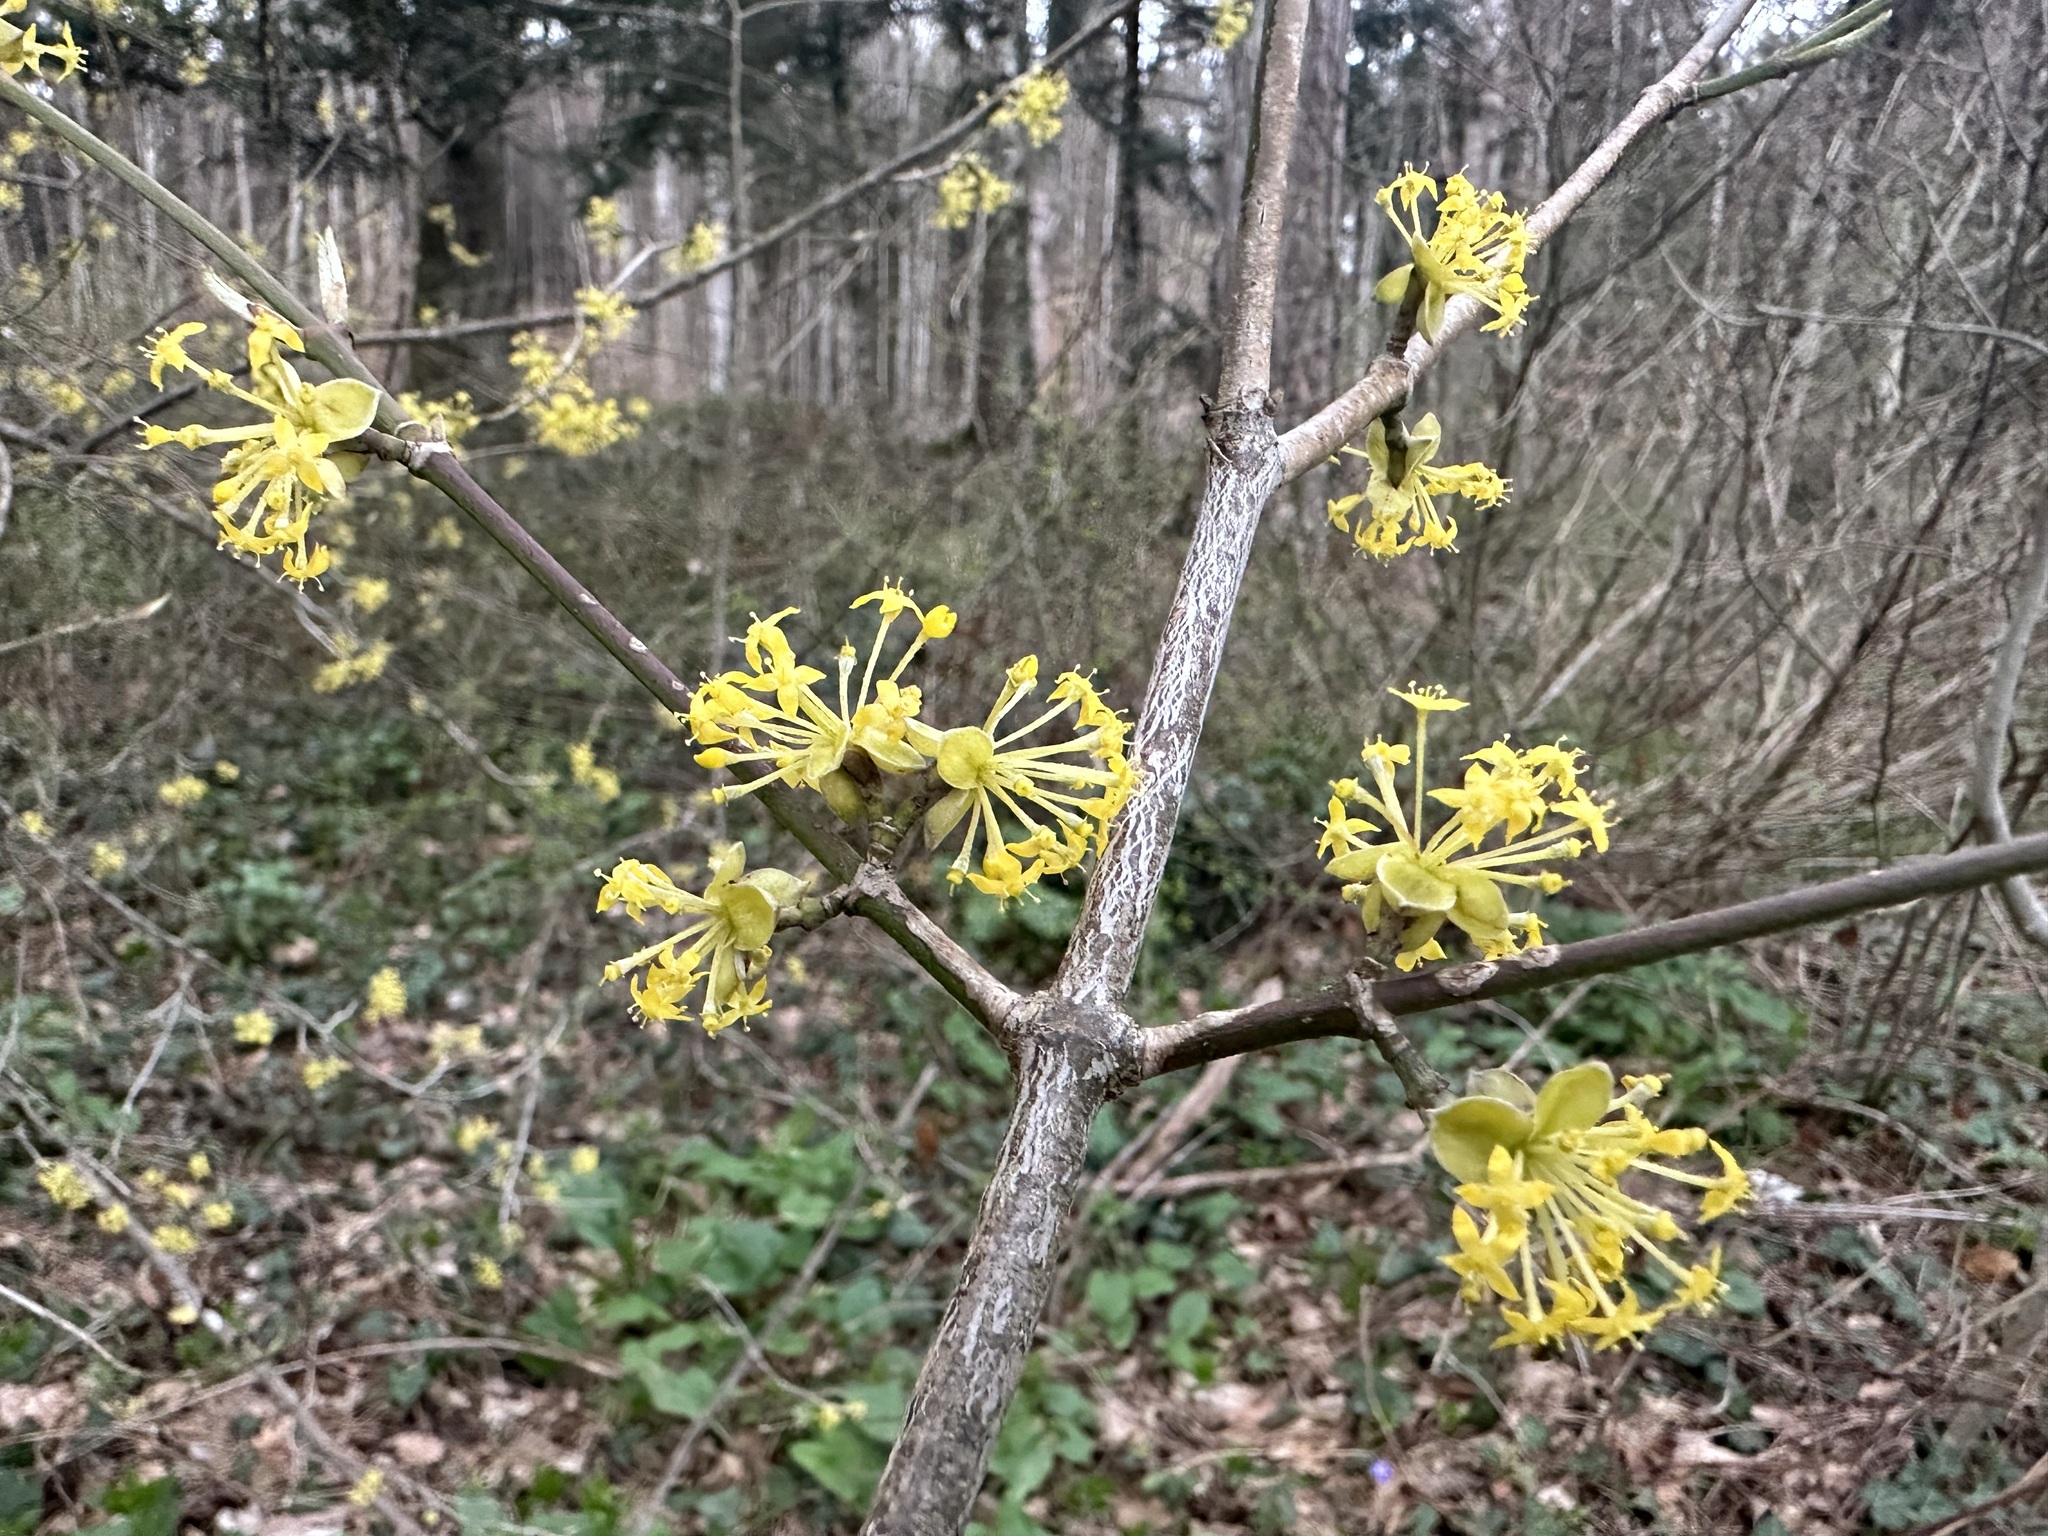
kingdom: Plantae
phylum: Tracheophyta
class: Magnoliopsida
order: Cornales
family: Cornaceae
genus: Cornus
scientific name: Cornus mas
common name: Cornelian-cherry
